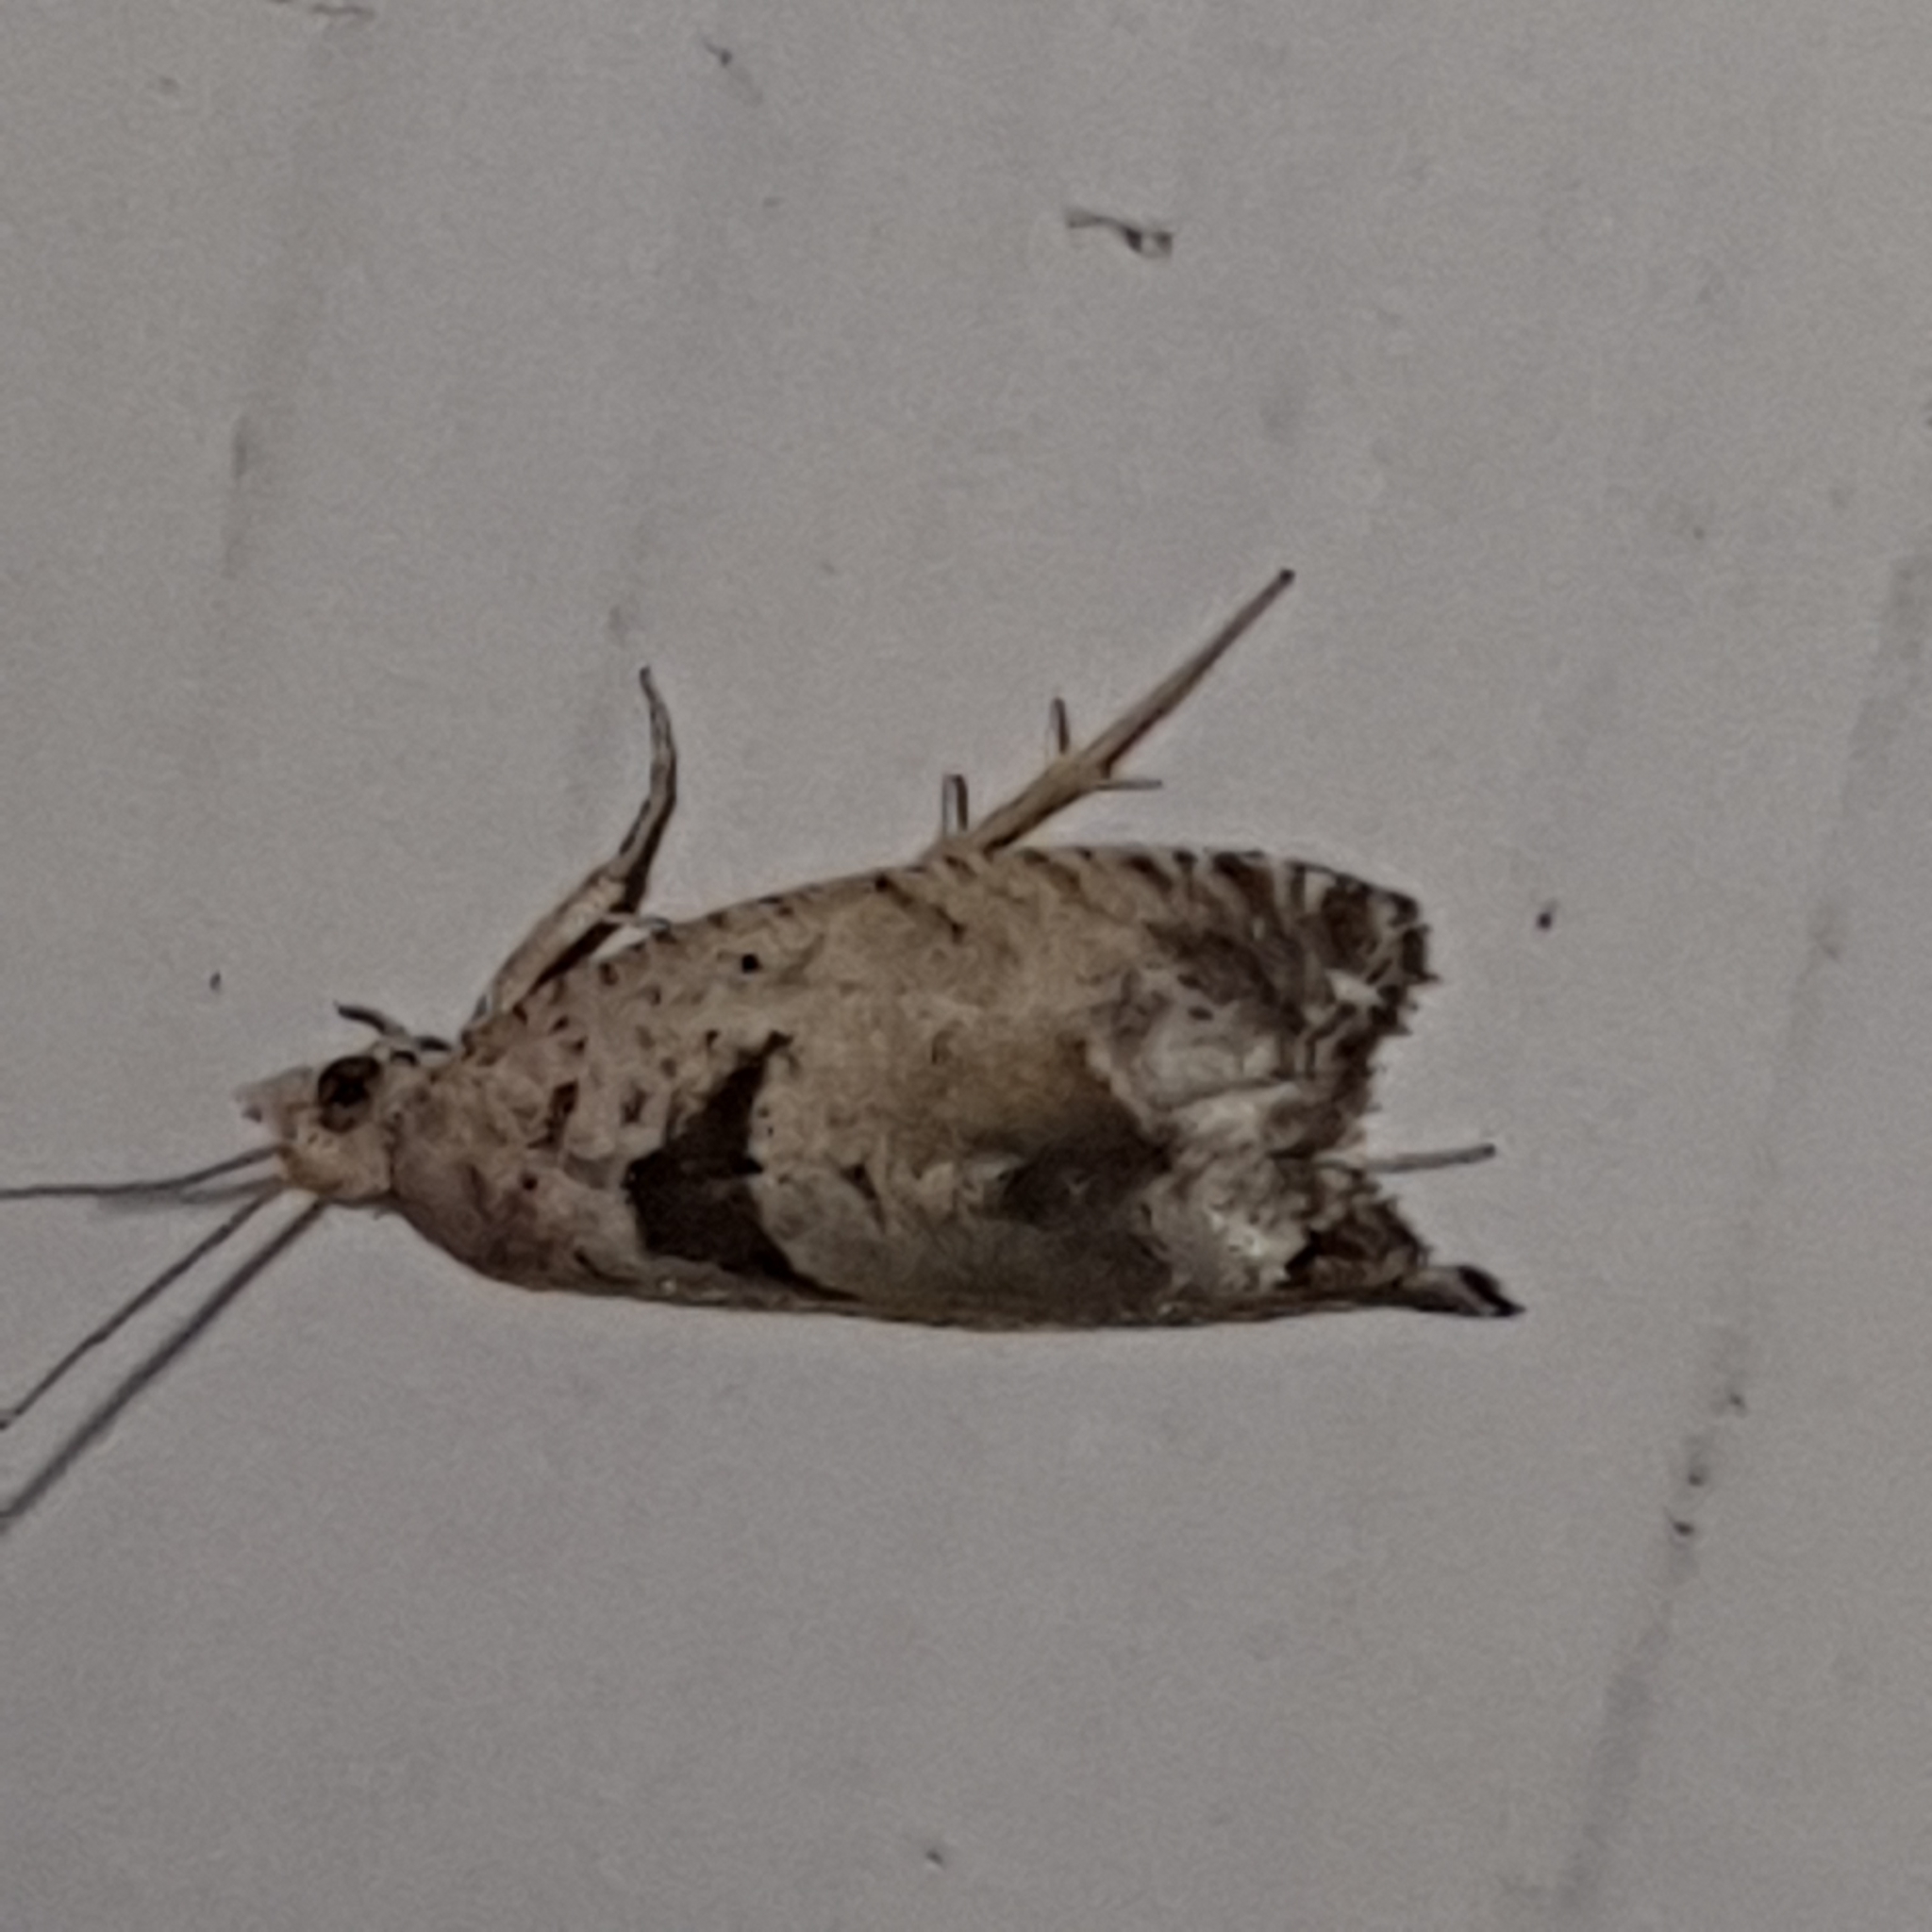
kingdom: Animalia
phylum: Arthropoda
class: Insecta
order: Lepidoptera
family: Tortricidae
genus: Epinotia
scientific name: Epinotia ramella
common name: Small birch bell
